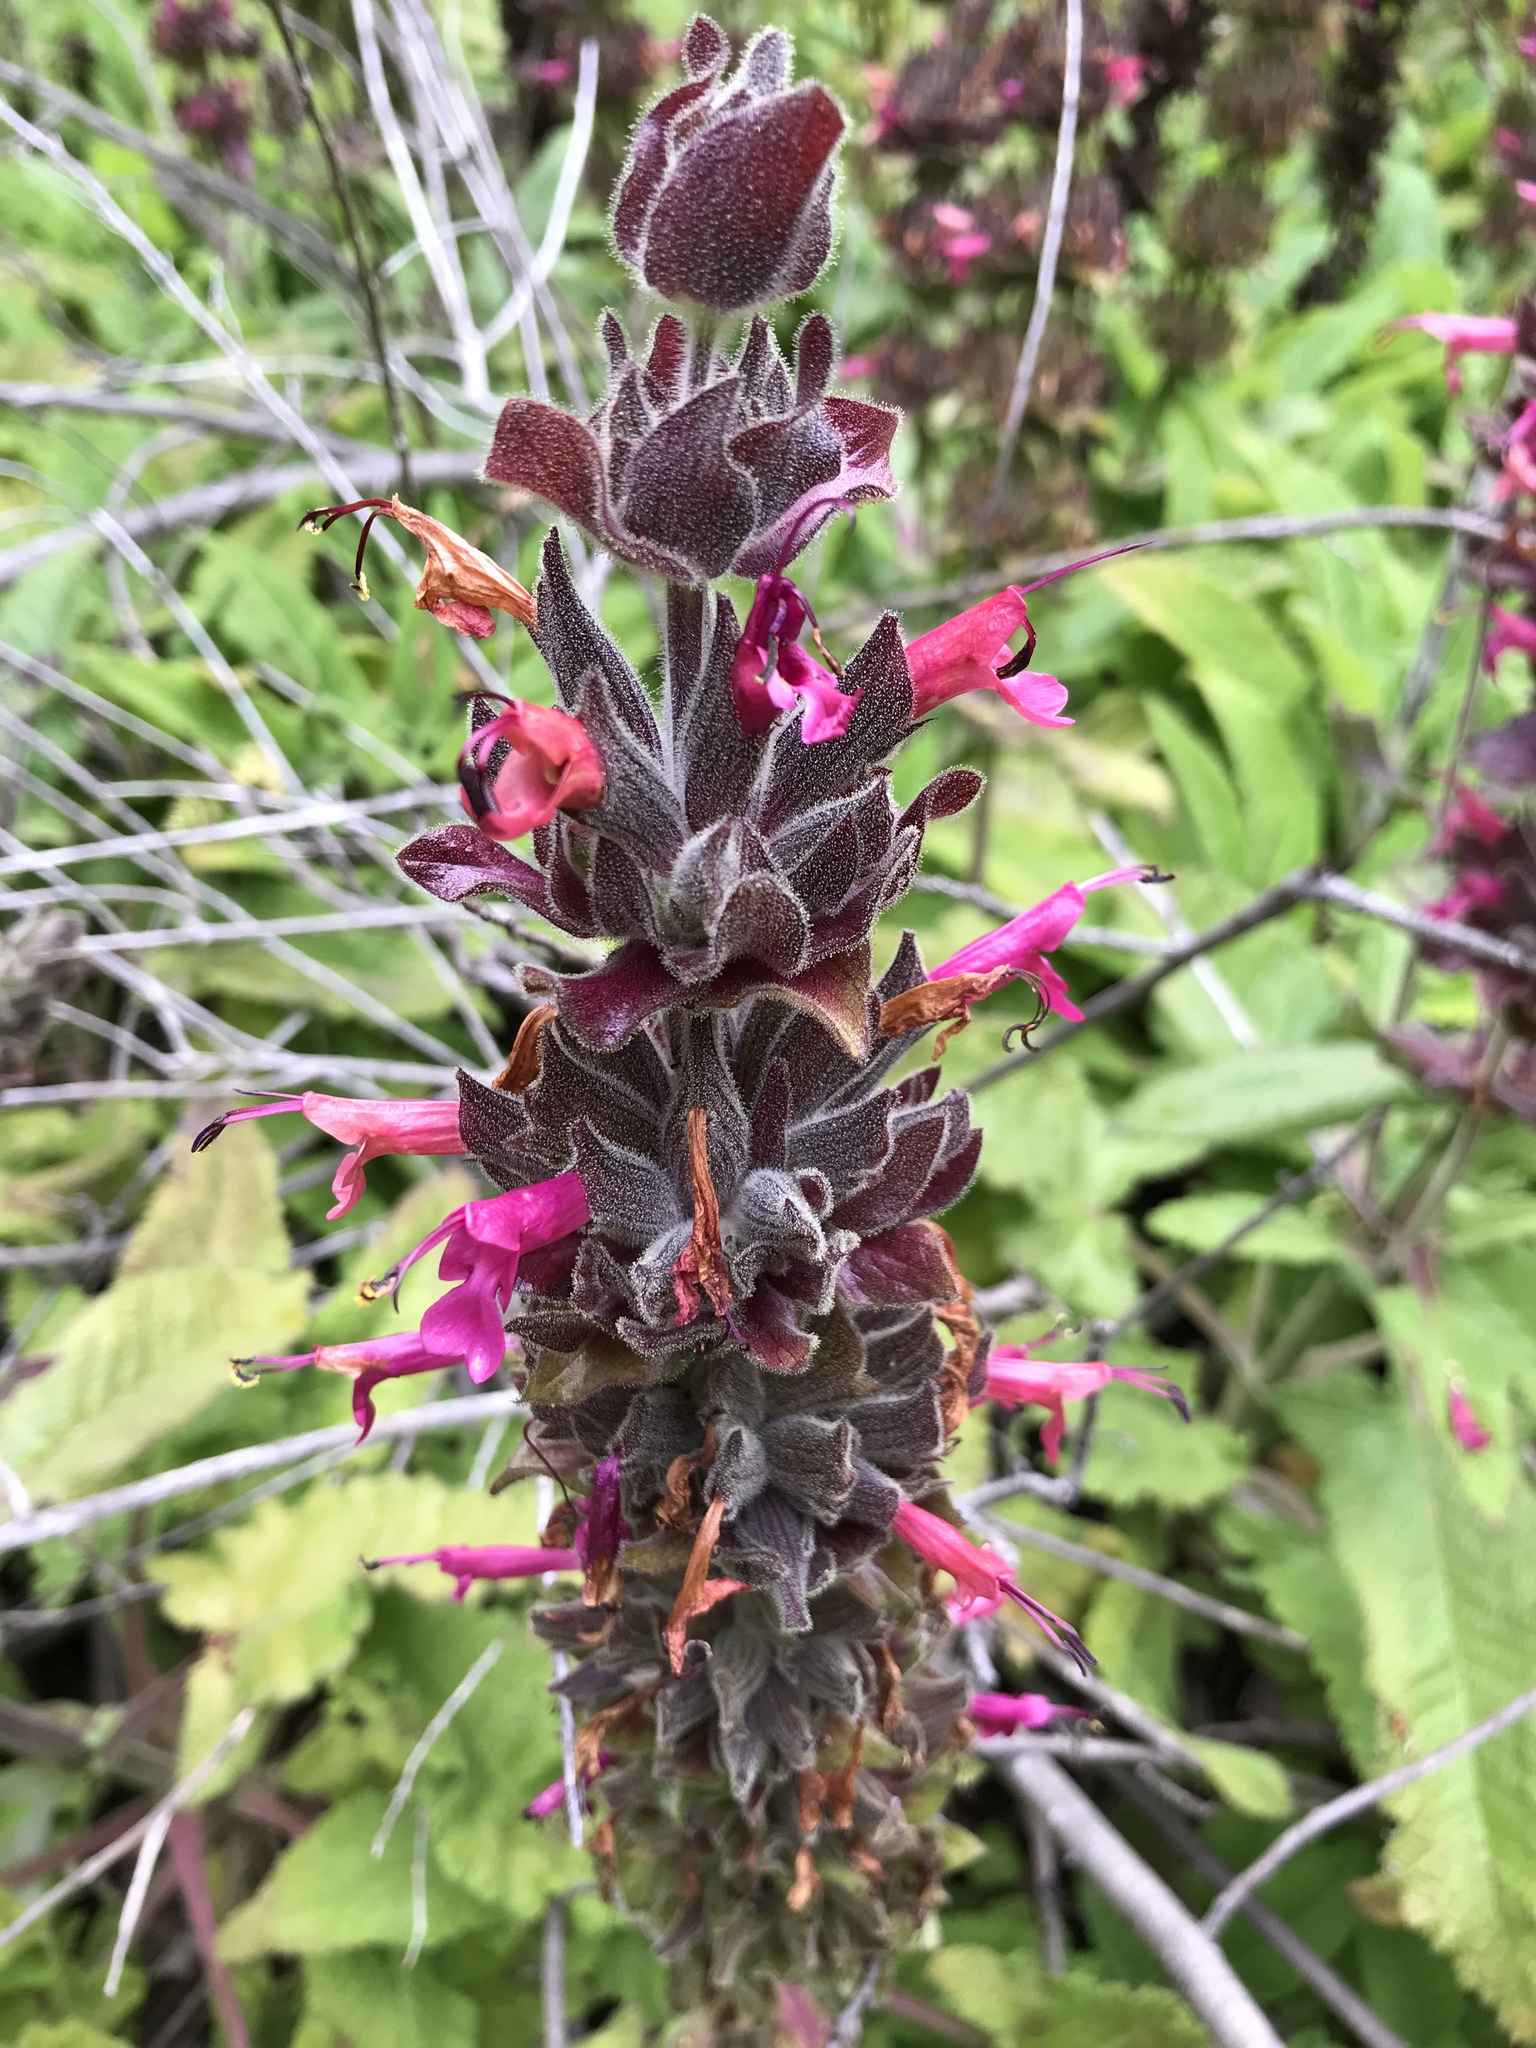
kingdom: Plantae
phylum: Tracheophyta
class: Magnoliopsida
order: Lamiales
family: Lamiaceae
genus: Salvia
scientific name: Salvia spathacea
